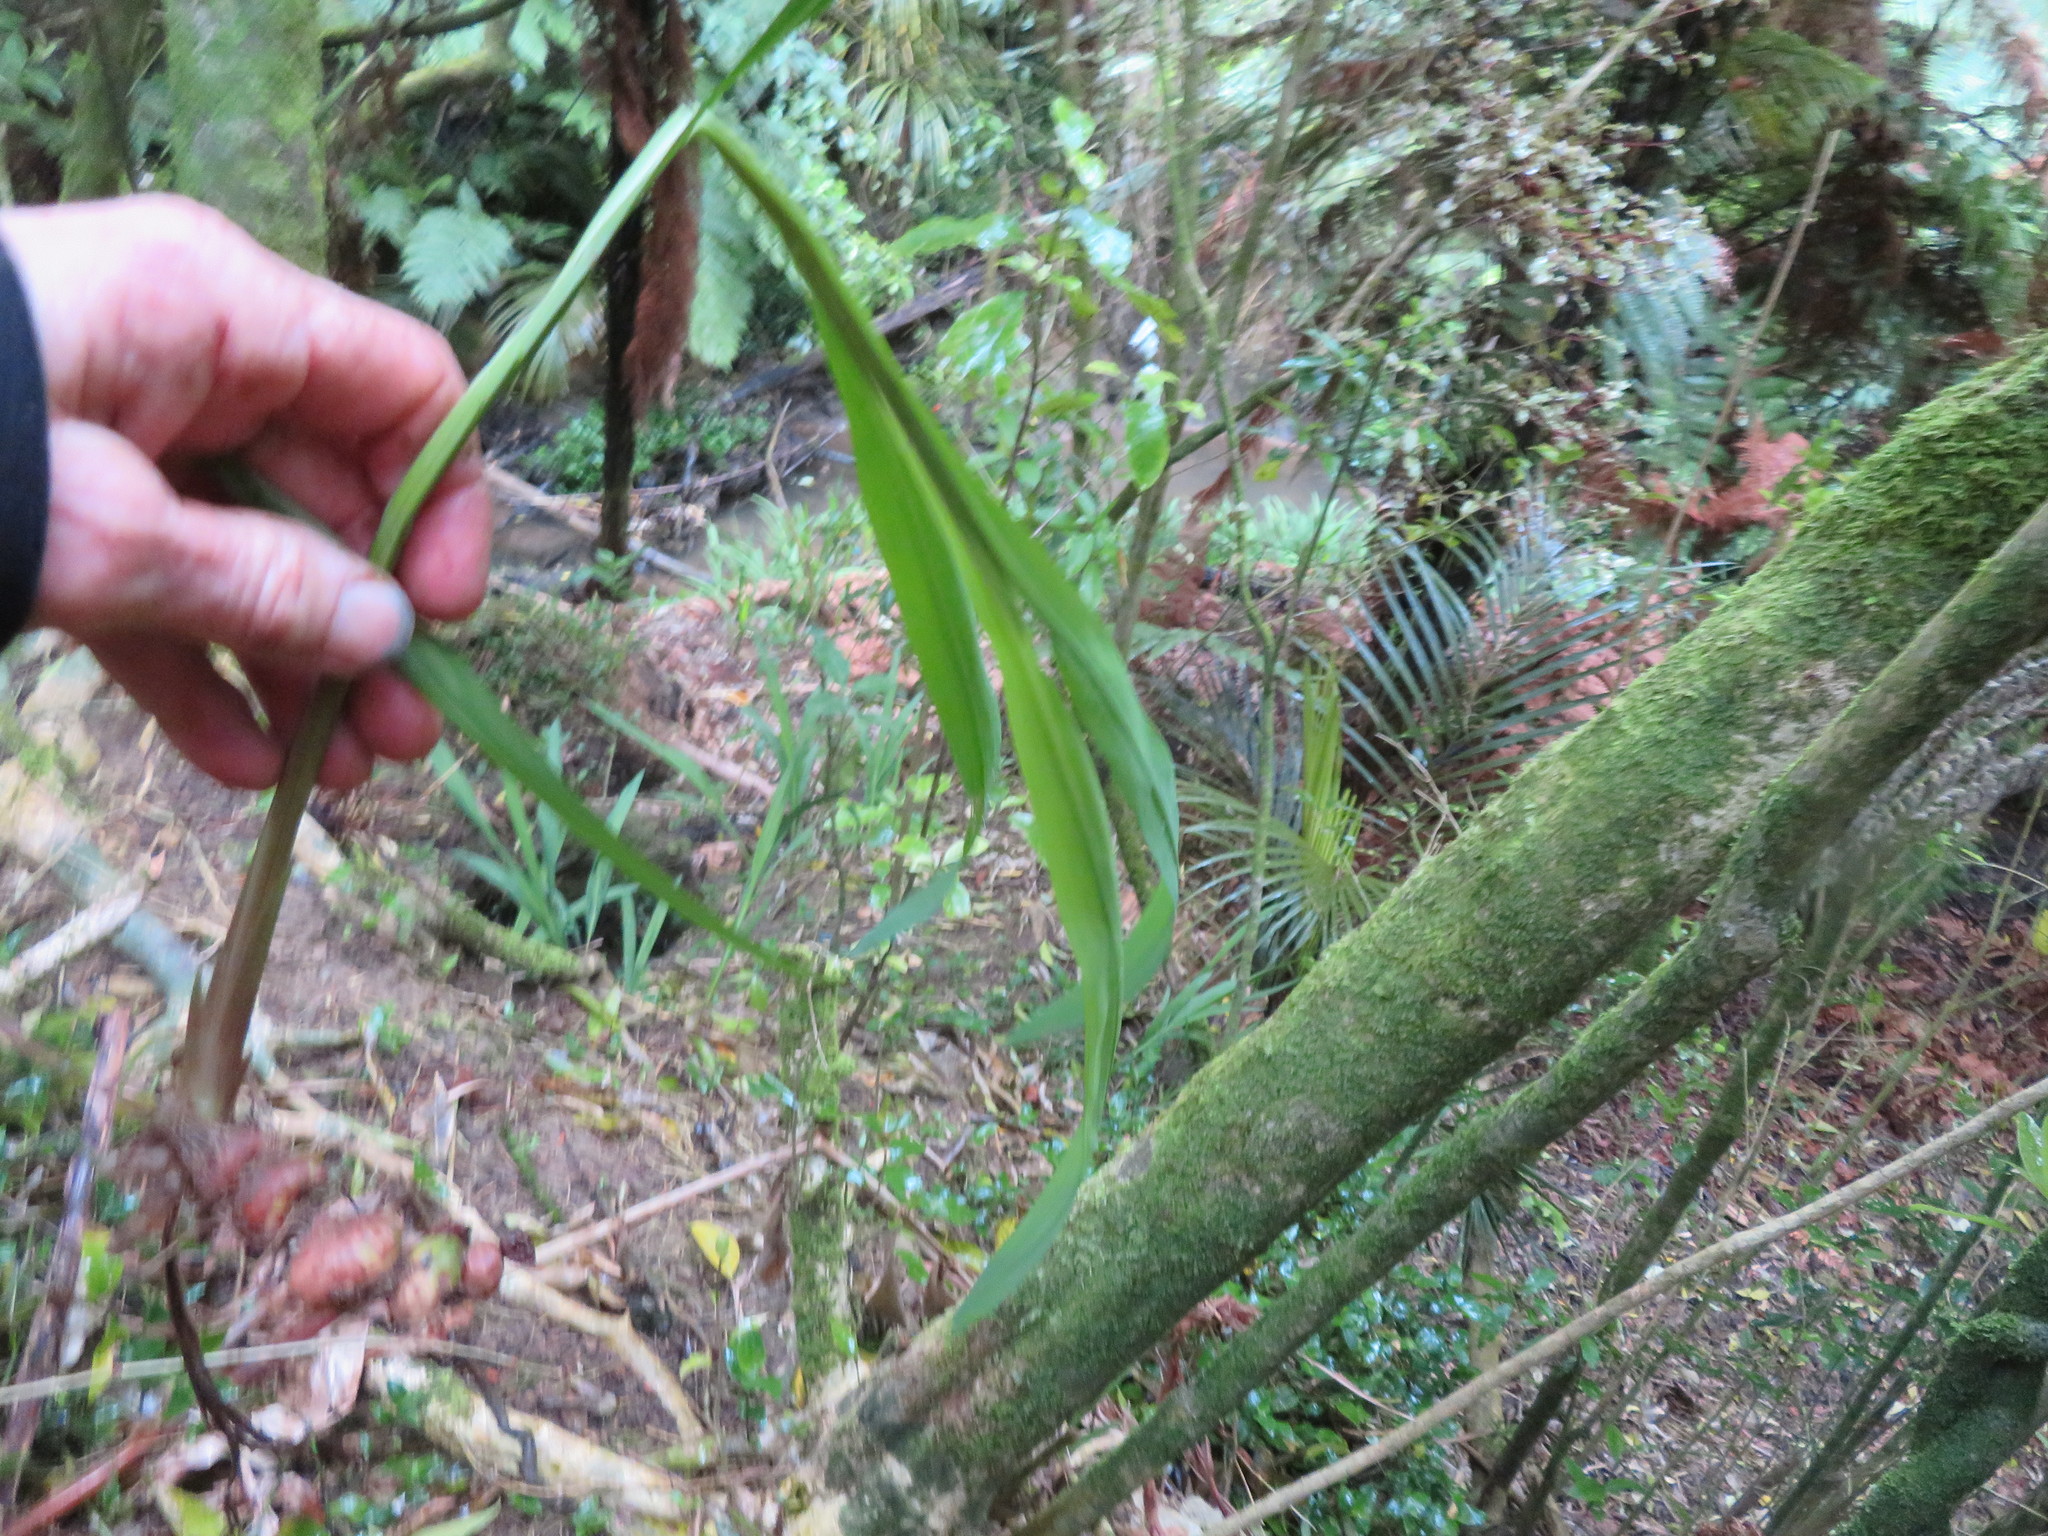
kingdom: Plantae
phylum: Tracheophyta
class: Liliopsida
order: Asparagales
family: Iridaceae
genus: Crocosmia
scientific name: Crocosmia crocosmiiflora
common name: Montbretia
